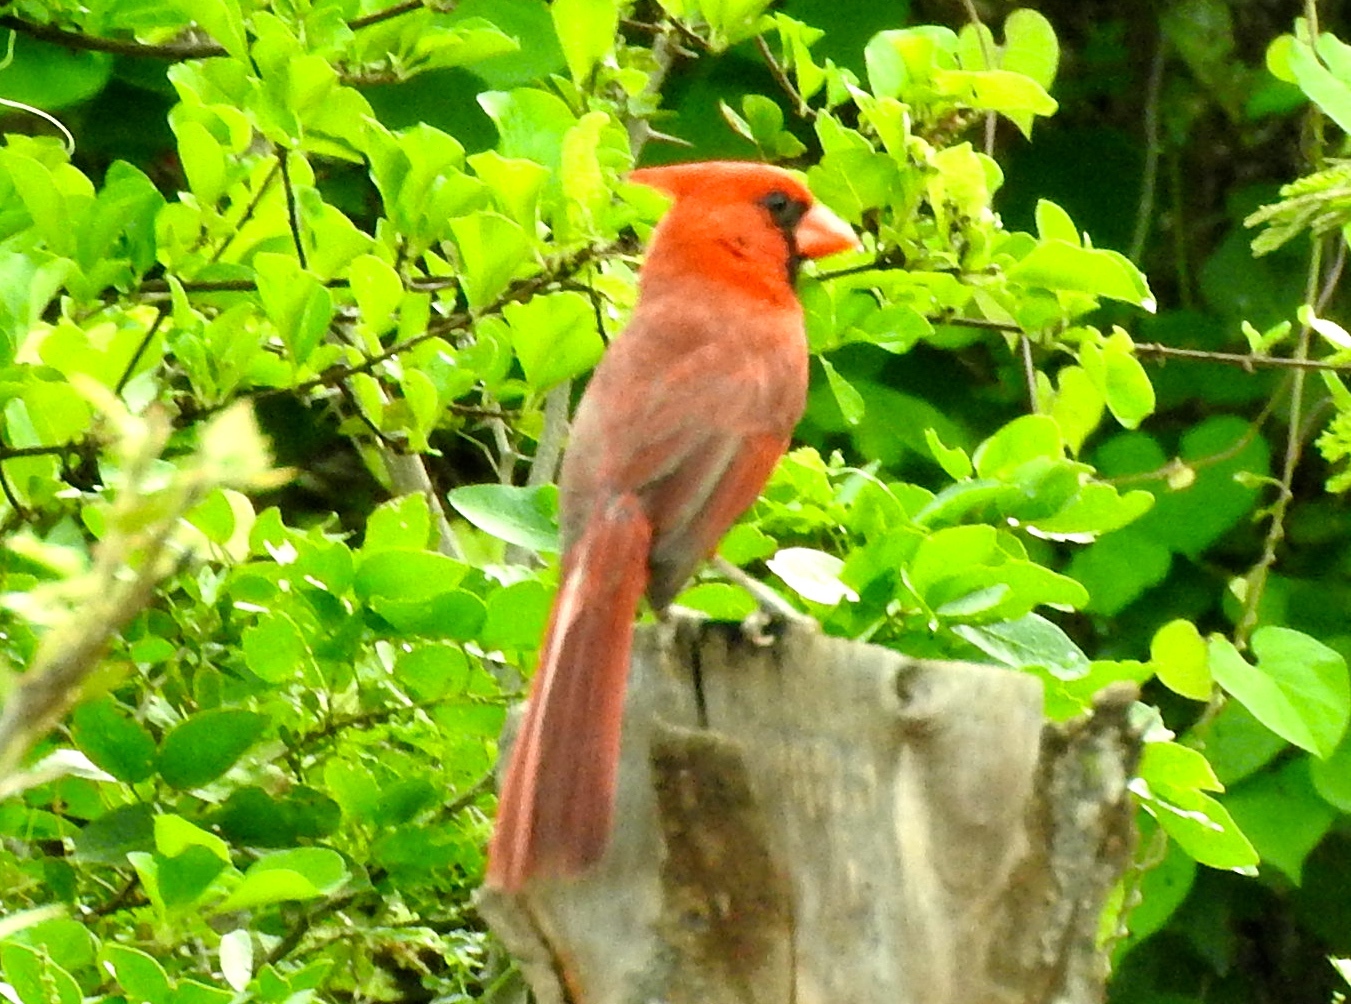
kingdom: Animalia
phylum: Chordata
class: Aves
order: Passeriformes
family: Cardinalidae
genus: Cardinalis
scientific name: Cardinalis cardinalis
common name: Northern cardinal
